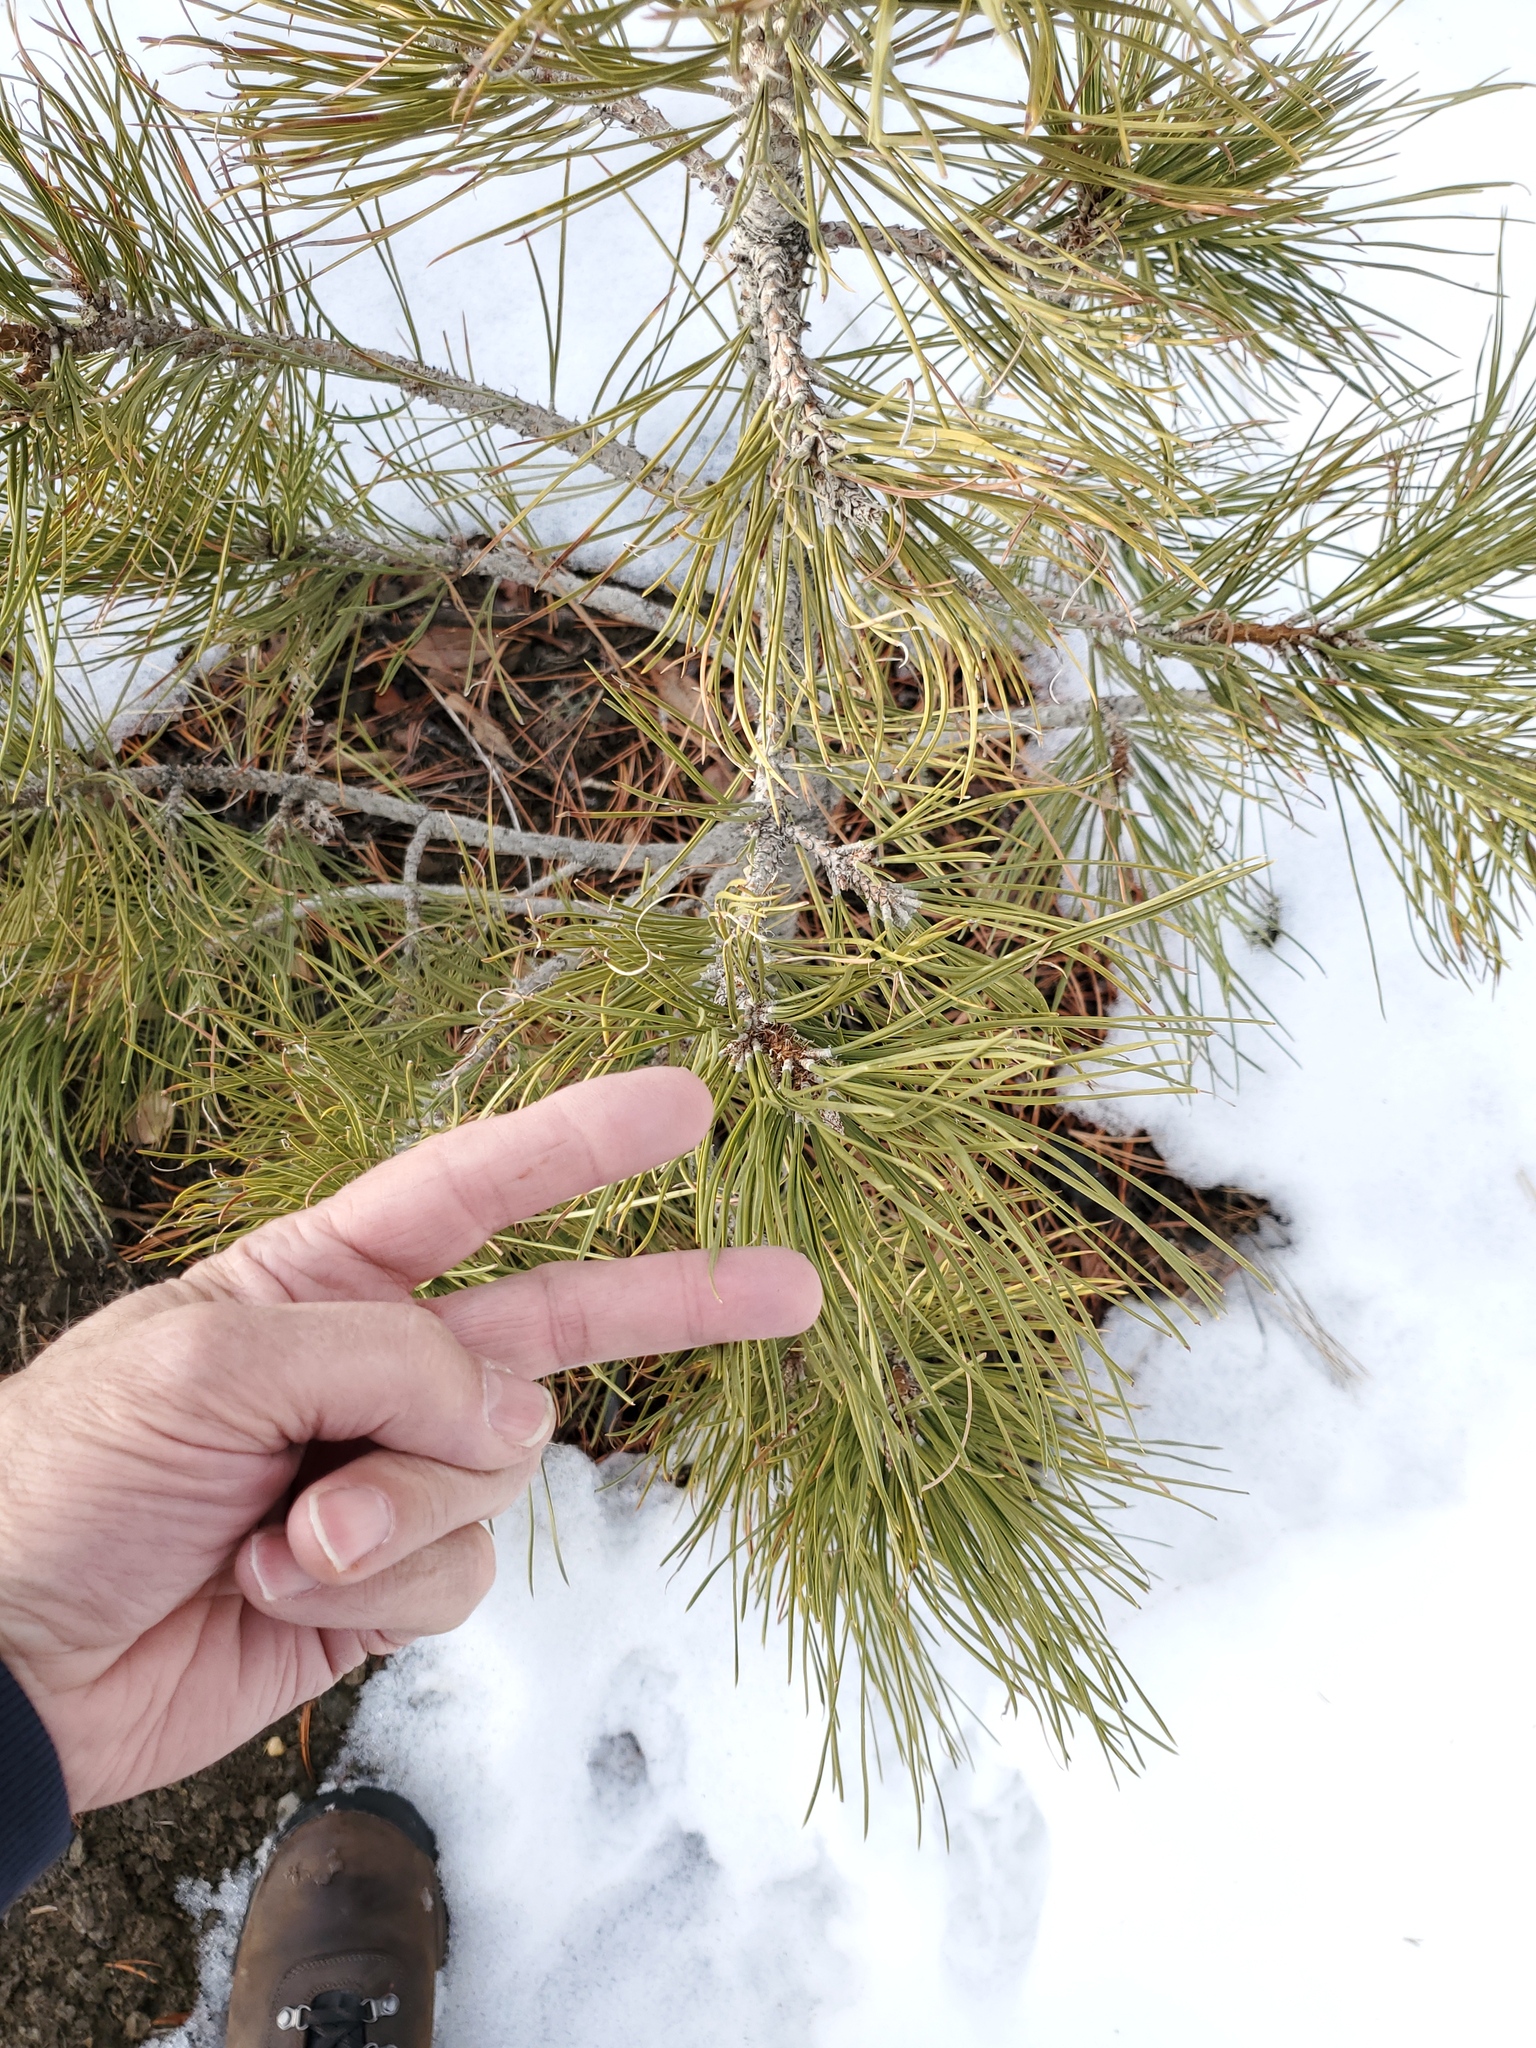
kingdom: Plantae
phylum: Tracheophyta
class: Pinopsida
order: Pinales
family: Pinaceae
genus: Pinus
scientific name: Pinus ponderosa
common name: Western yellow-pine
